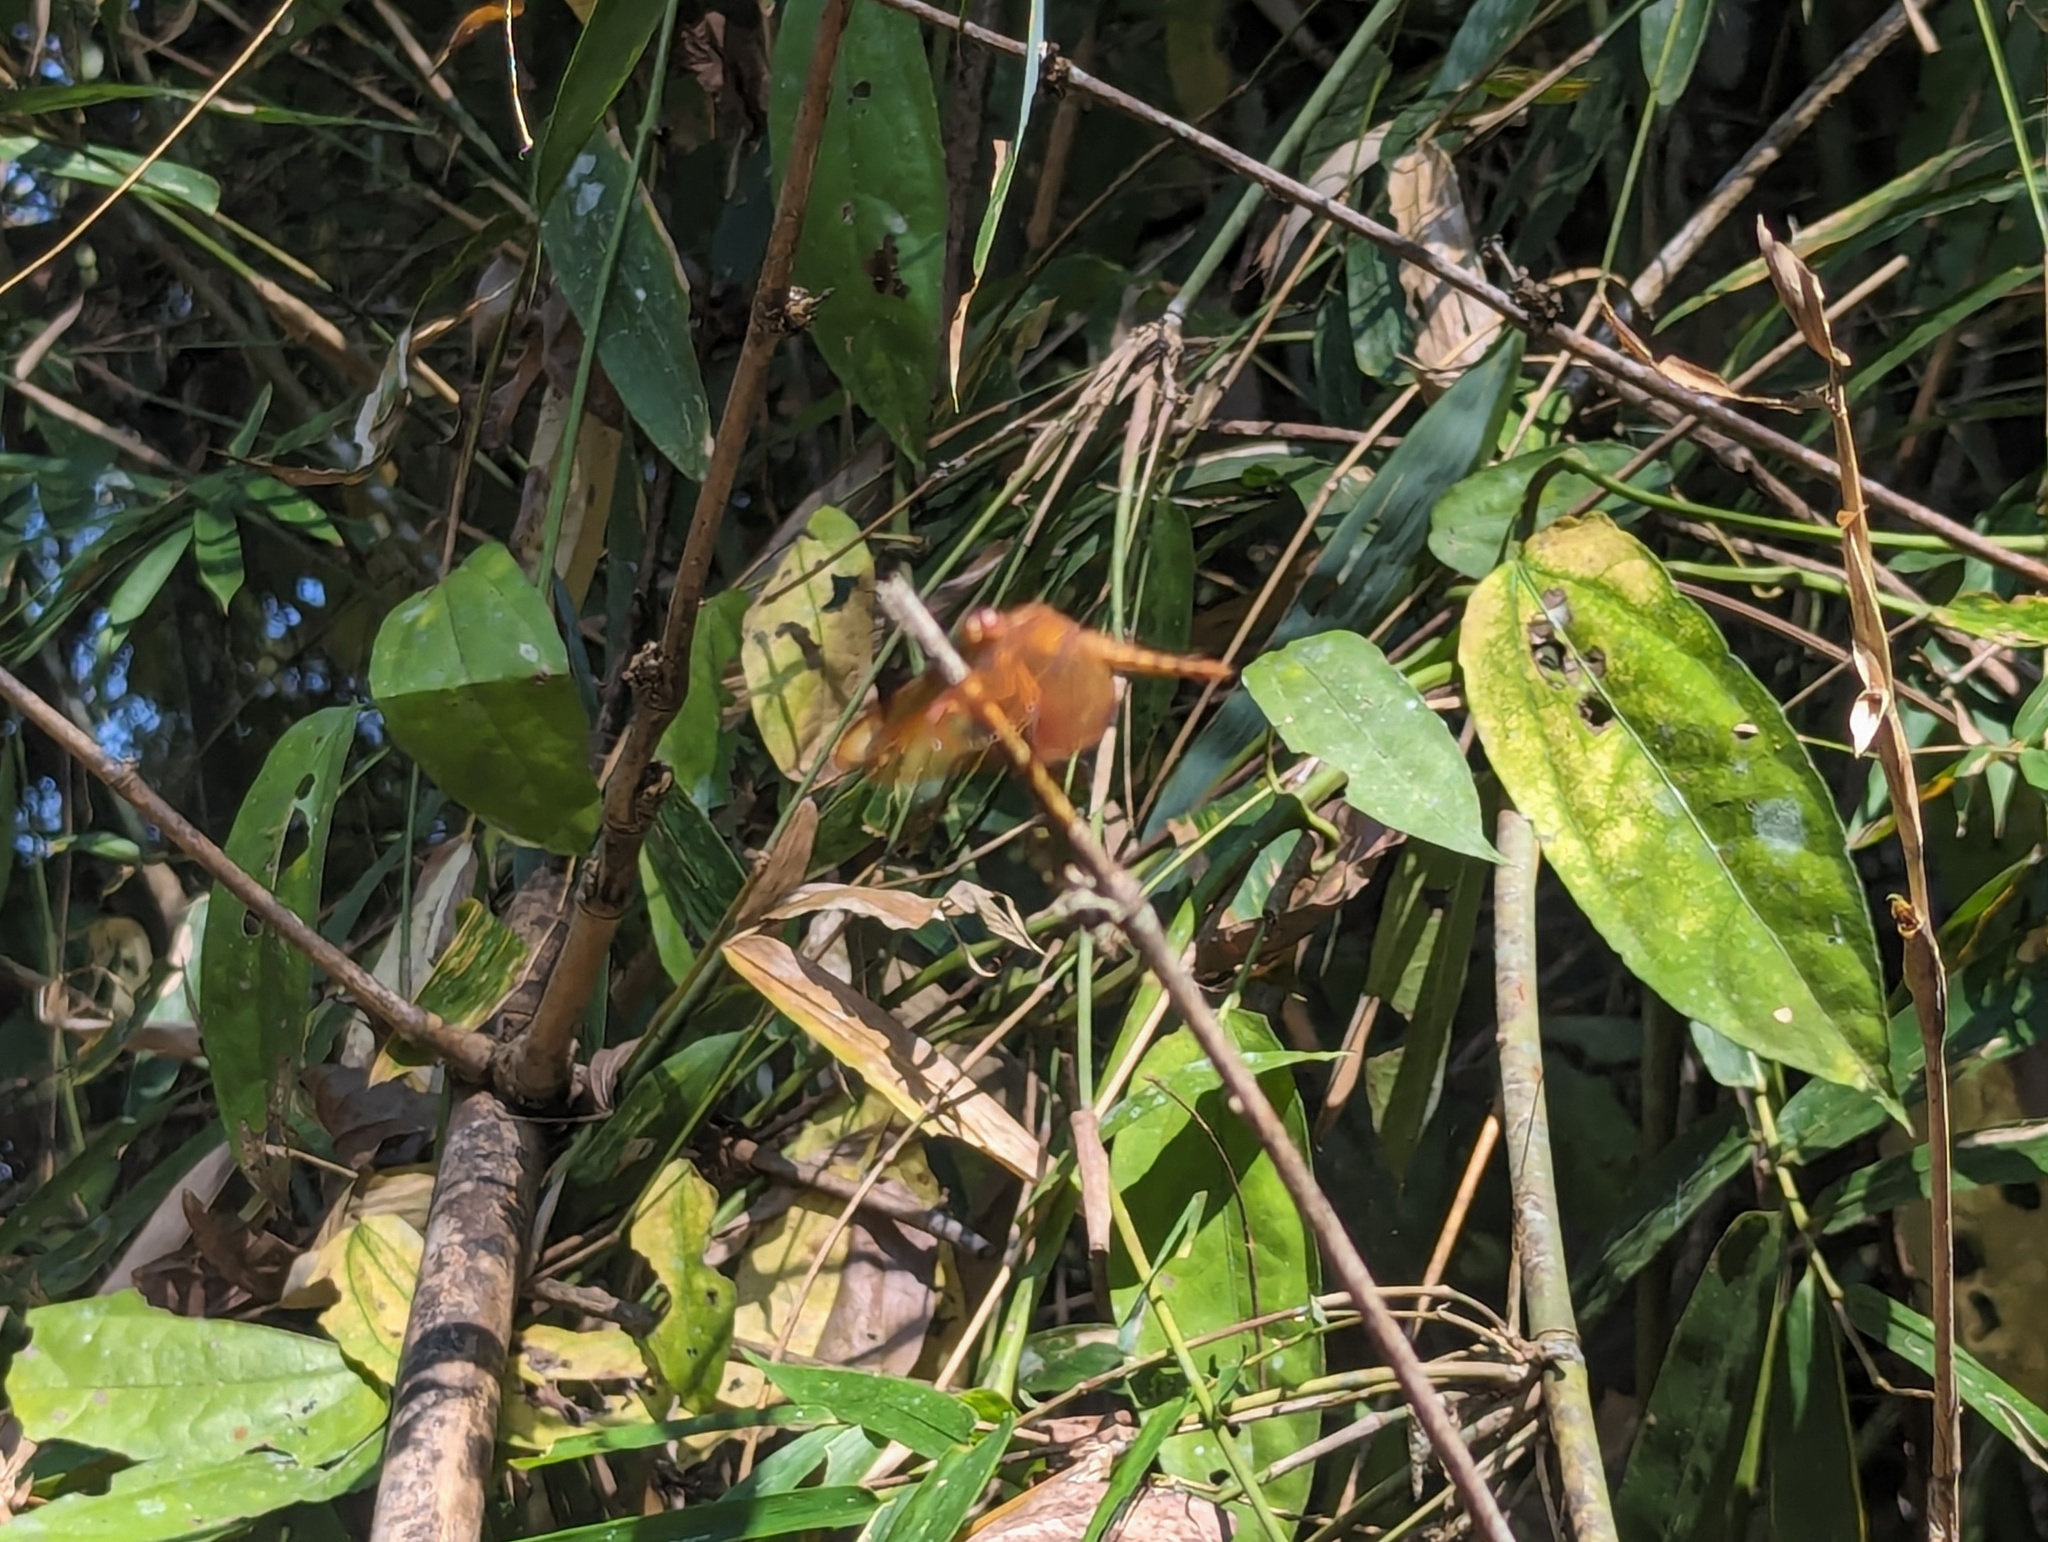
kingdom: Animalia
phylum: Arthropoda
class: Insecta
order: Odonata
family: Libellulidae
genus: Neurothemis
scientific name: Neurothemis fulvia
